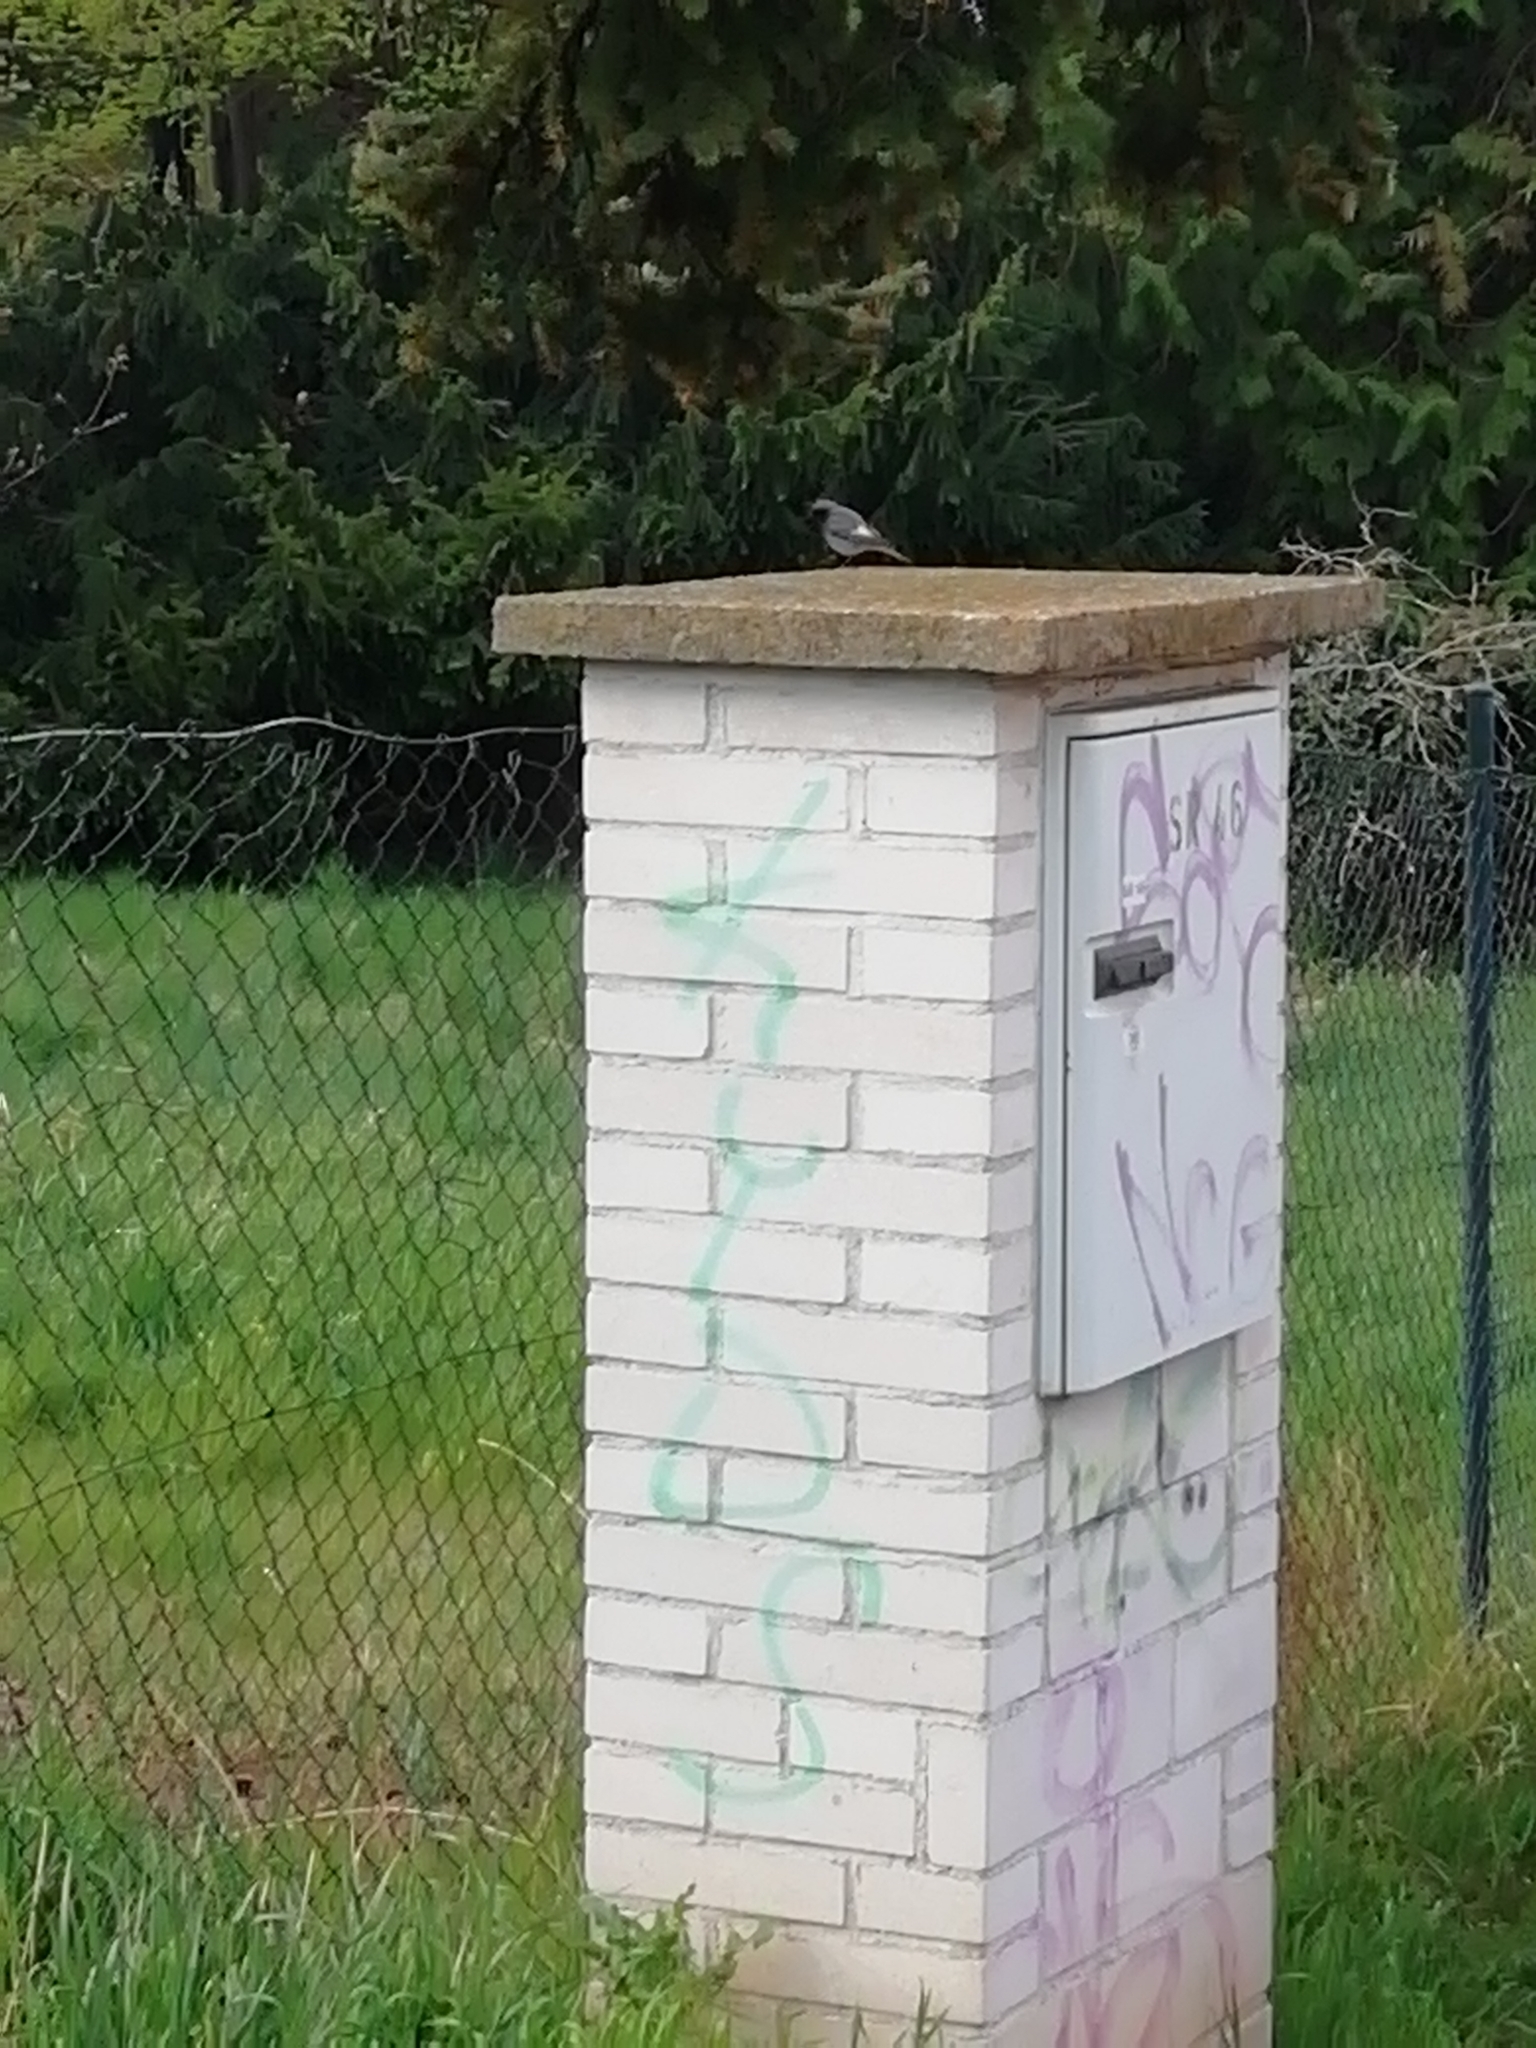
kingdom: Animalia
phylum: Chordata
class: Aves
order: Passeriformes
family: Muscicapidae
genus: Phoenicurus
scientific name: Phoenicurus ochruros
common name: Black redstart
